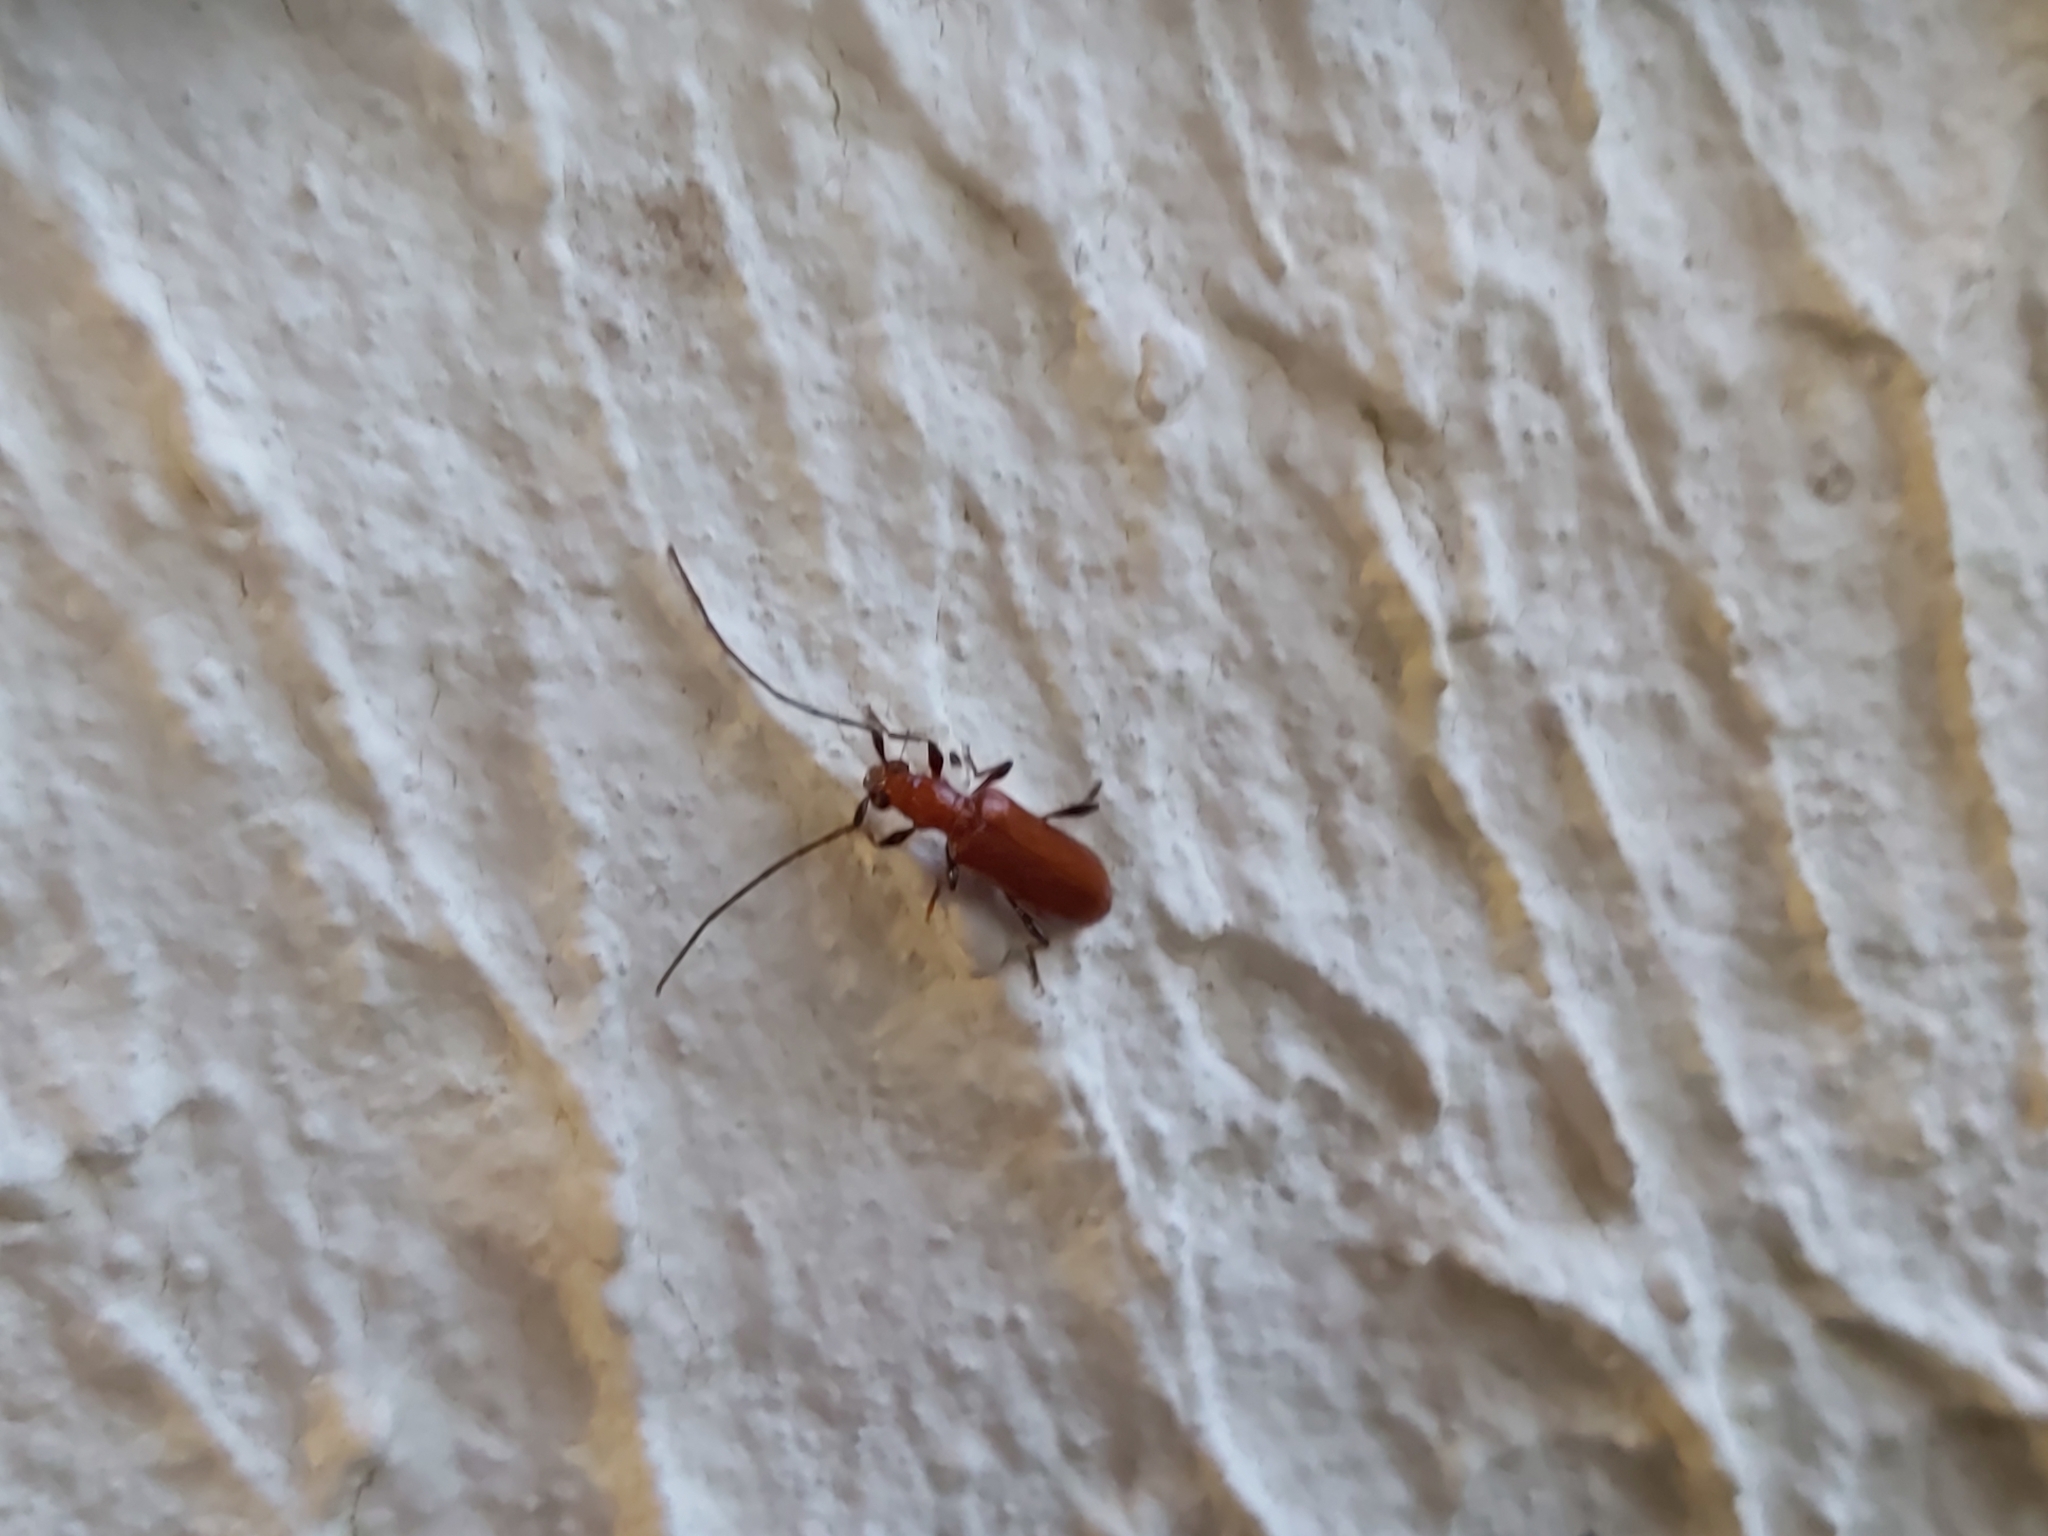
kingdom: Animalia
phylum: Arthropoda
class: Insecta
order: Coleoptera
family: Cerambycidae
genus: Obrium
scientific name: Obrium cantharinum
